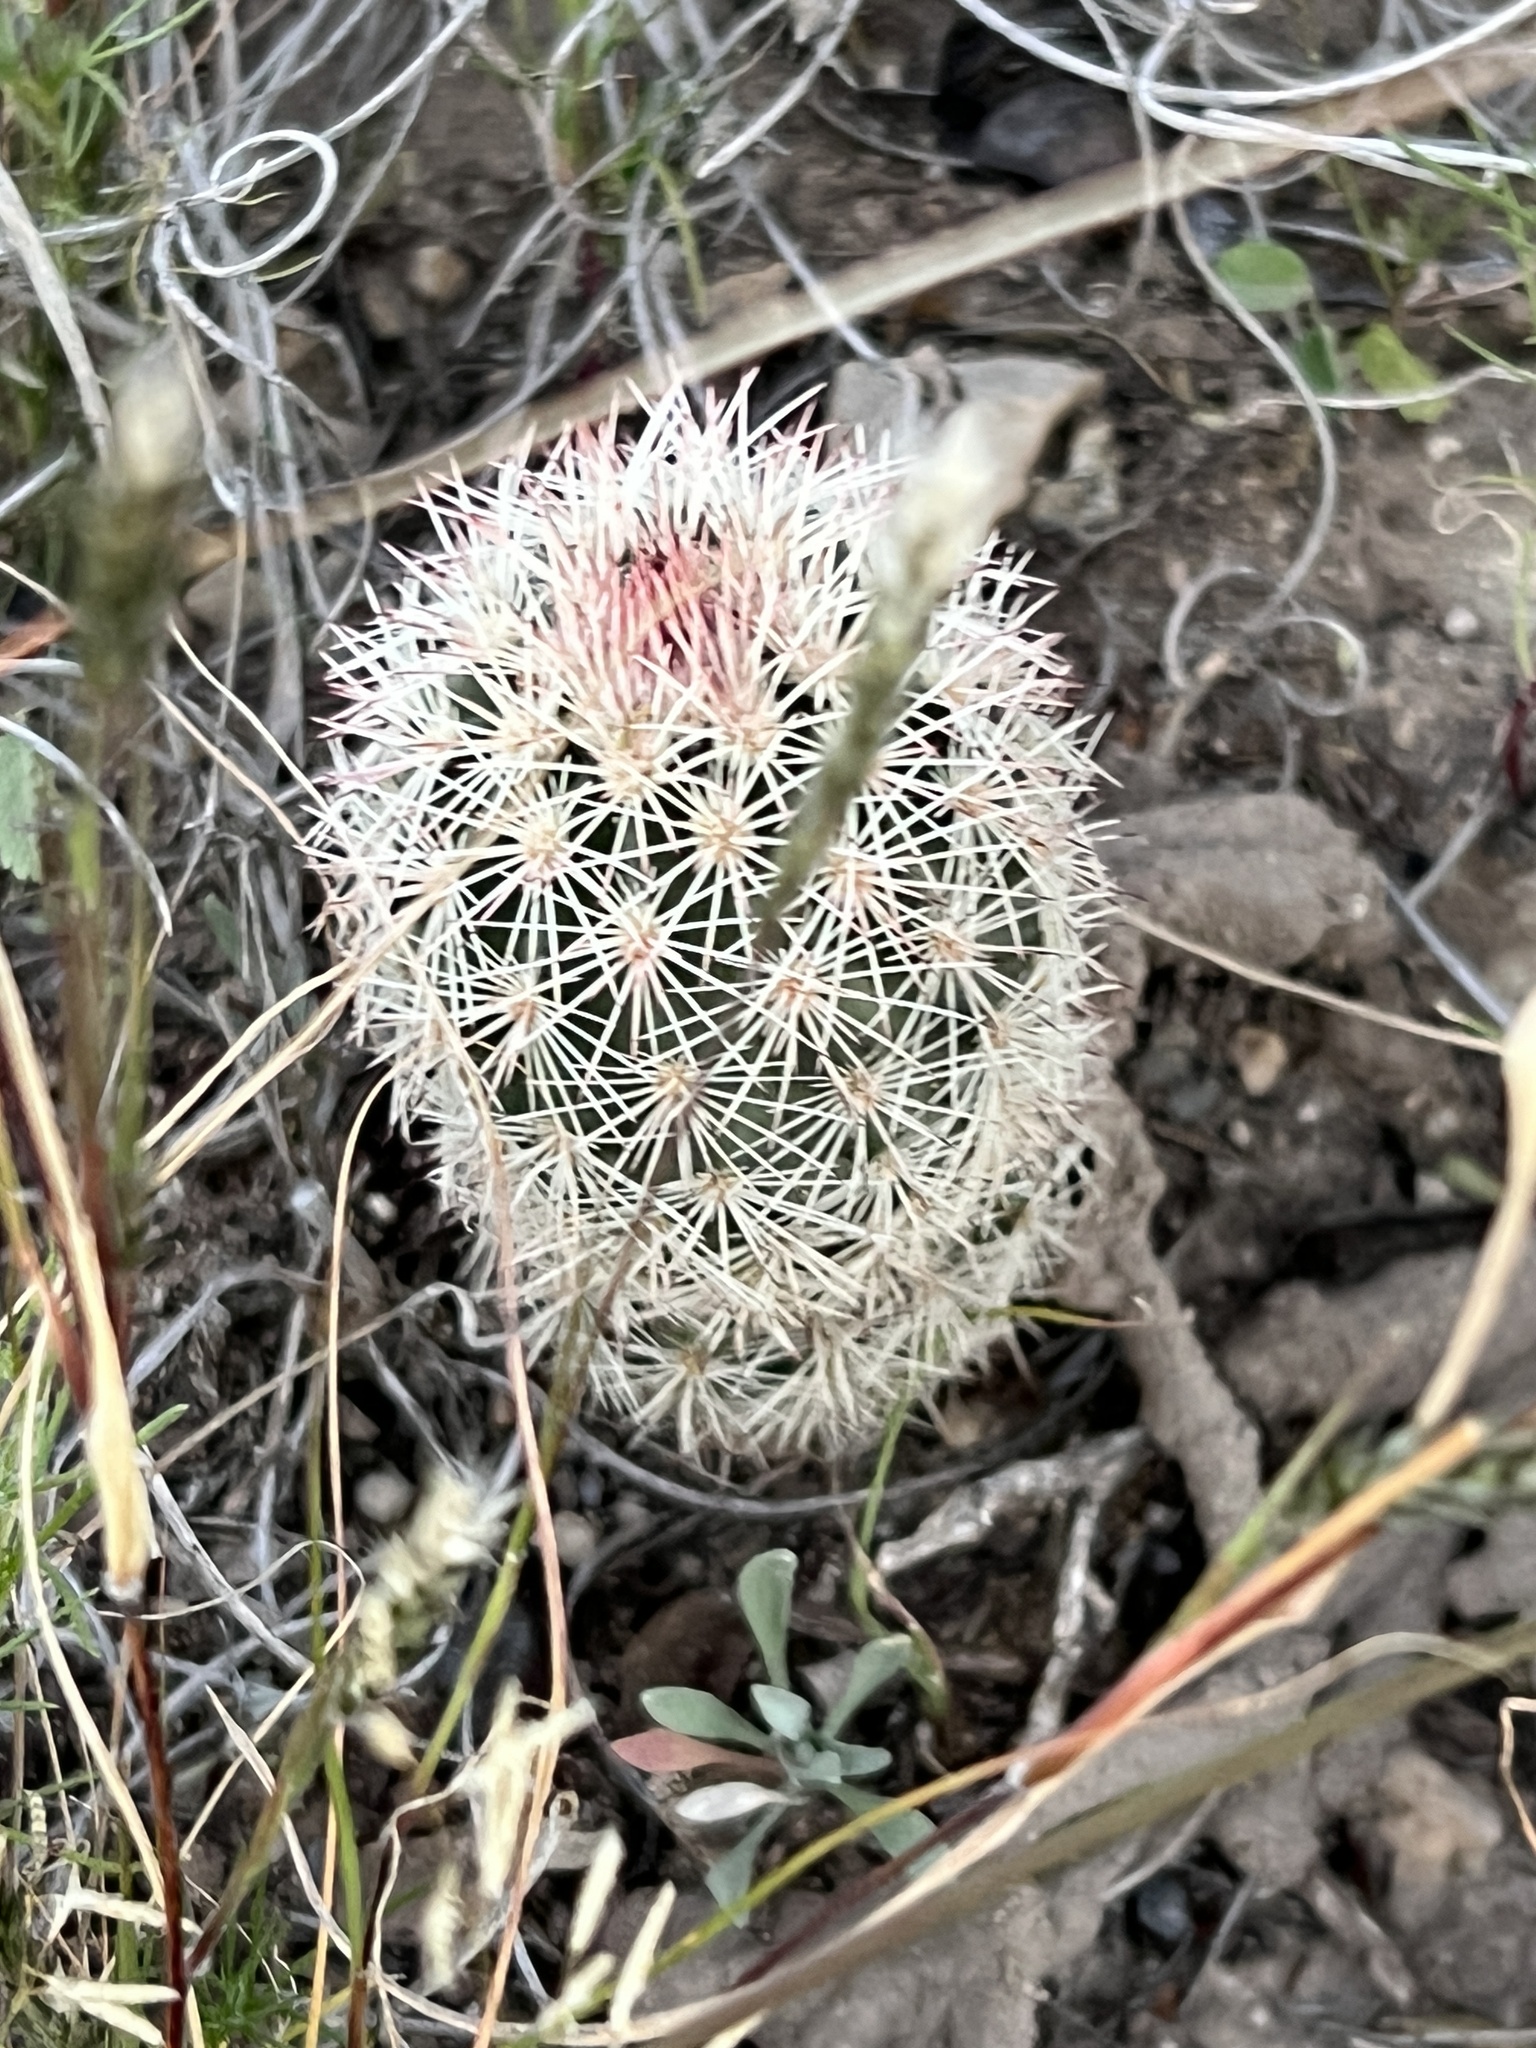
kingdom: Plantae
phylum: Tracheophyta
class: Magnoliopsida
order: Caryophyllales
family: Cactaceae
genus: Echinocereus
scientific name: Echinocereus dasyacanthus
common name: Spiny hedgehog cactus
